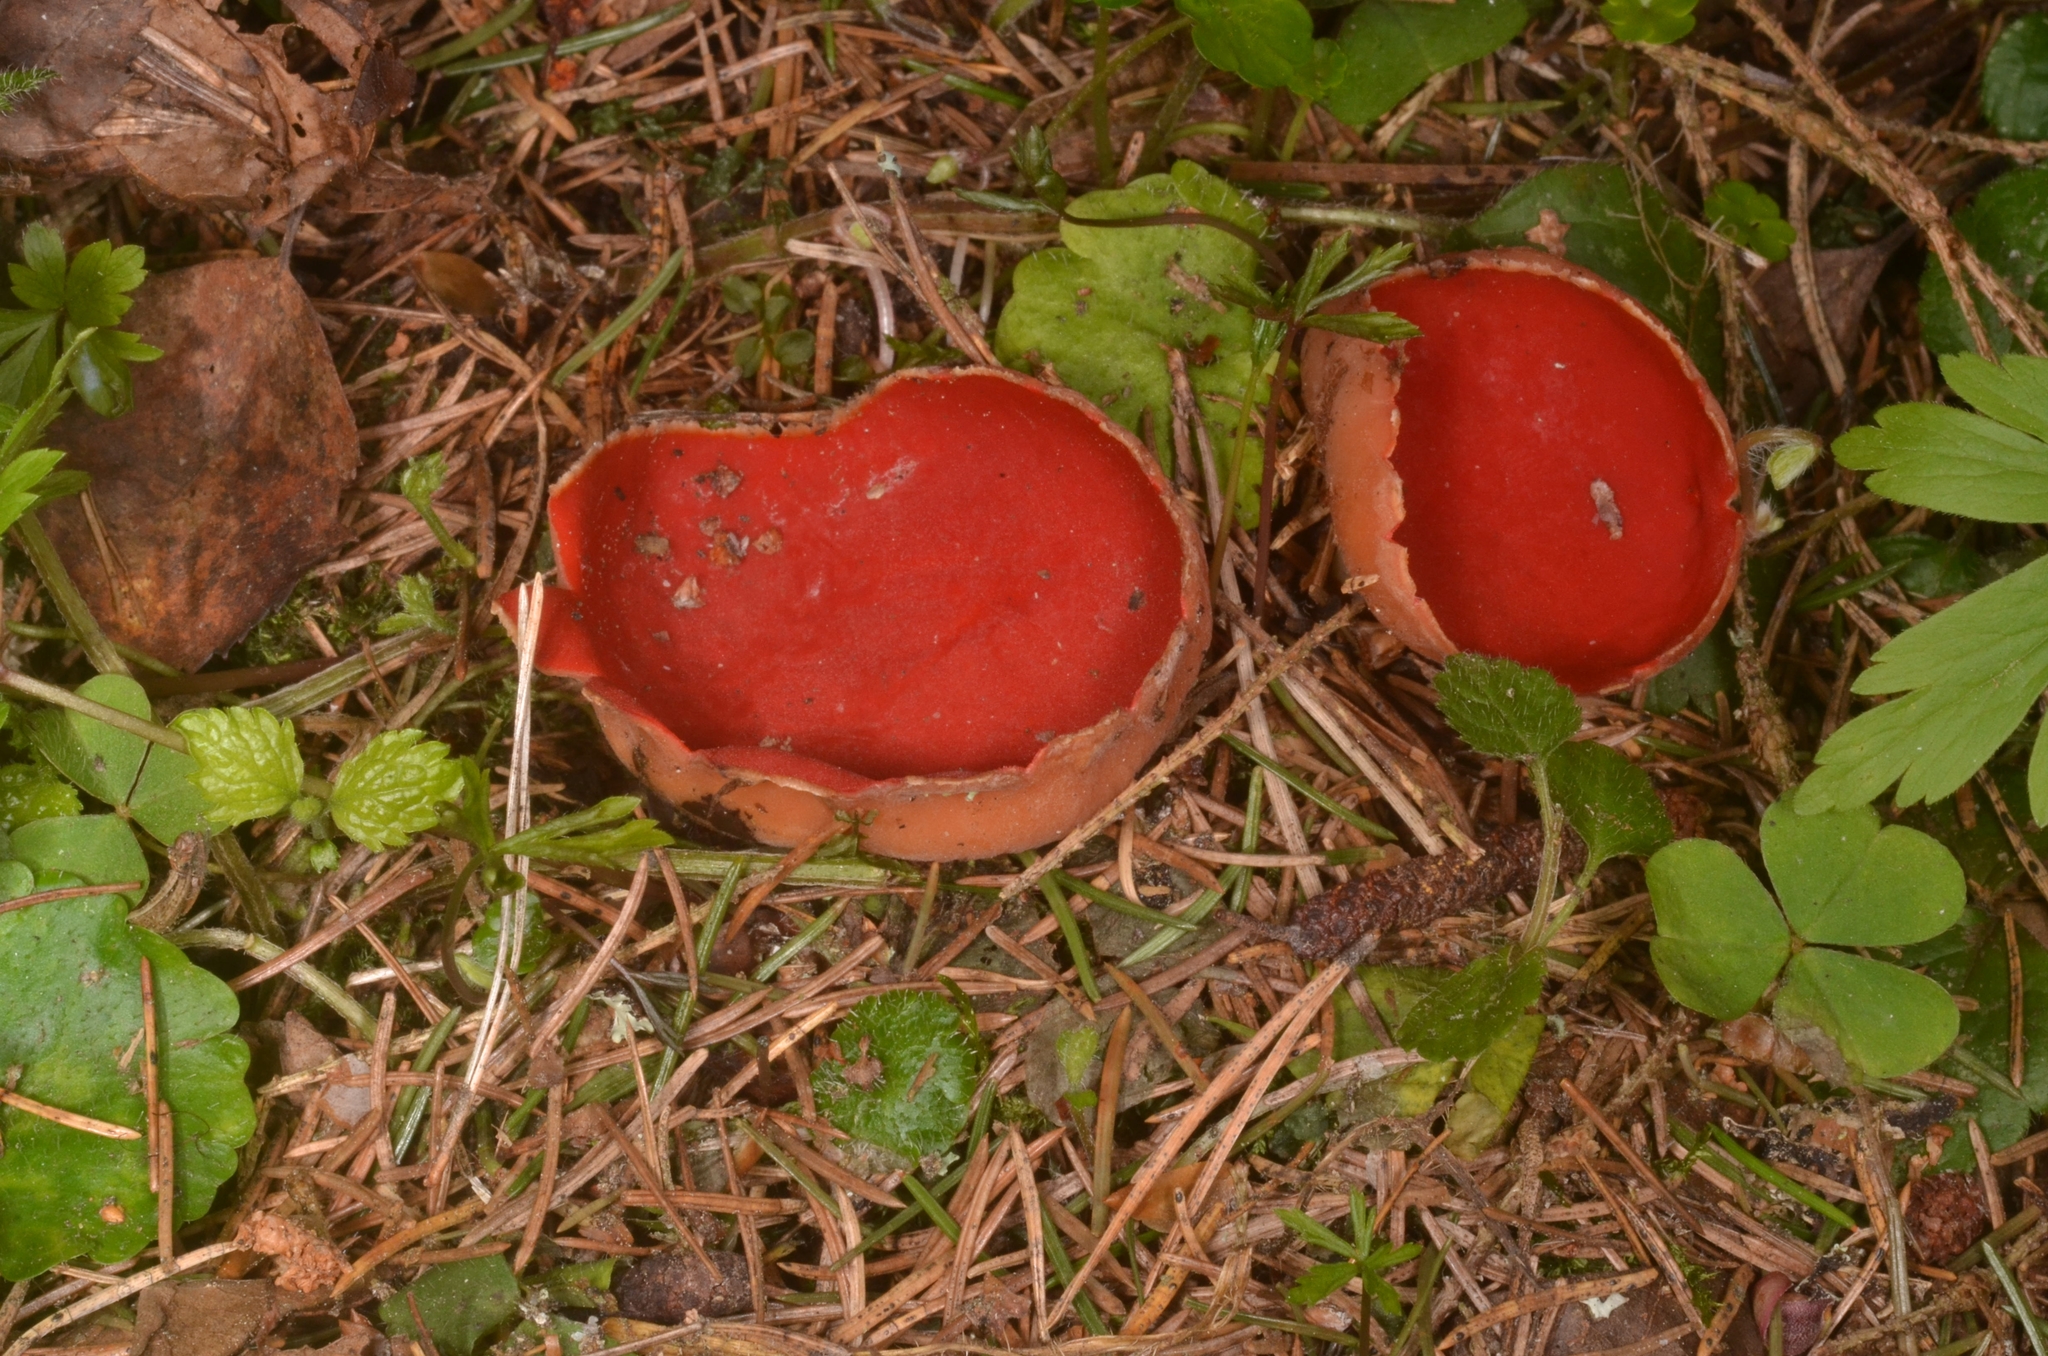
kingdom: Fungi
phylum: Ascomycota
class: Pezizomycetes
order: Pezizales
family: Sarcoscyphaceae
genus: Sarcoscypha
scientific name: Sarcoscypha austriaca
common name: Scarlet elfcup
